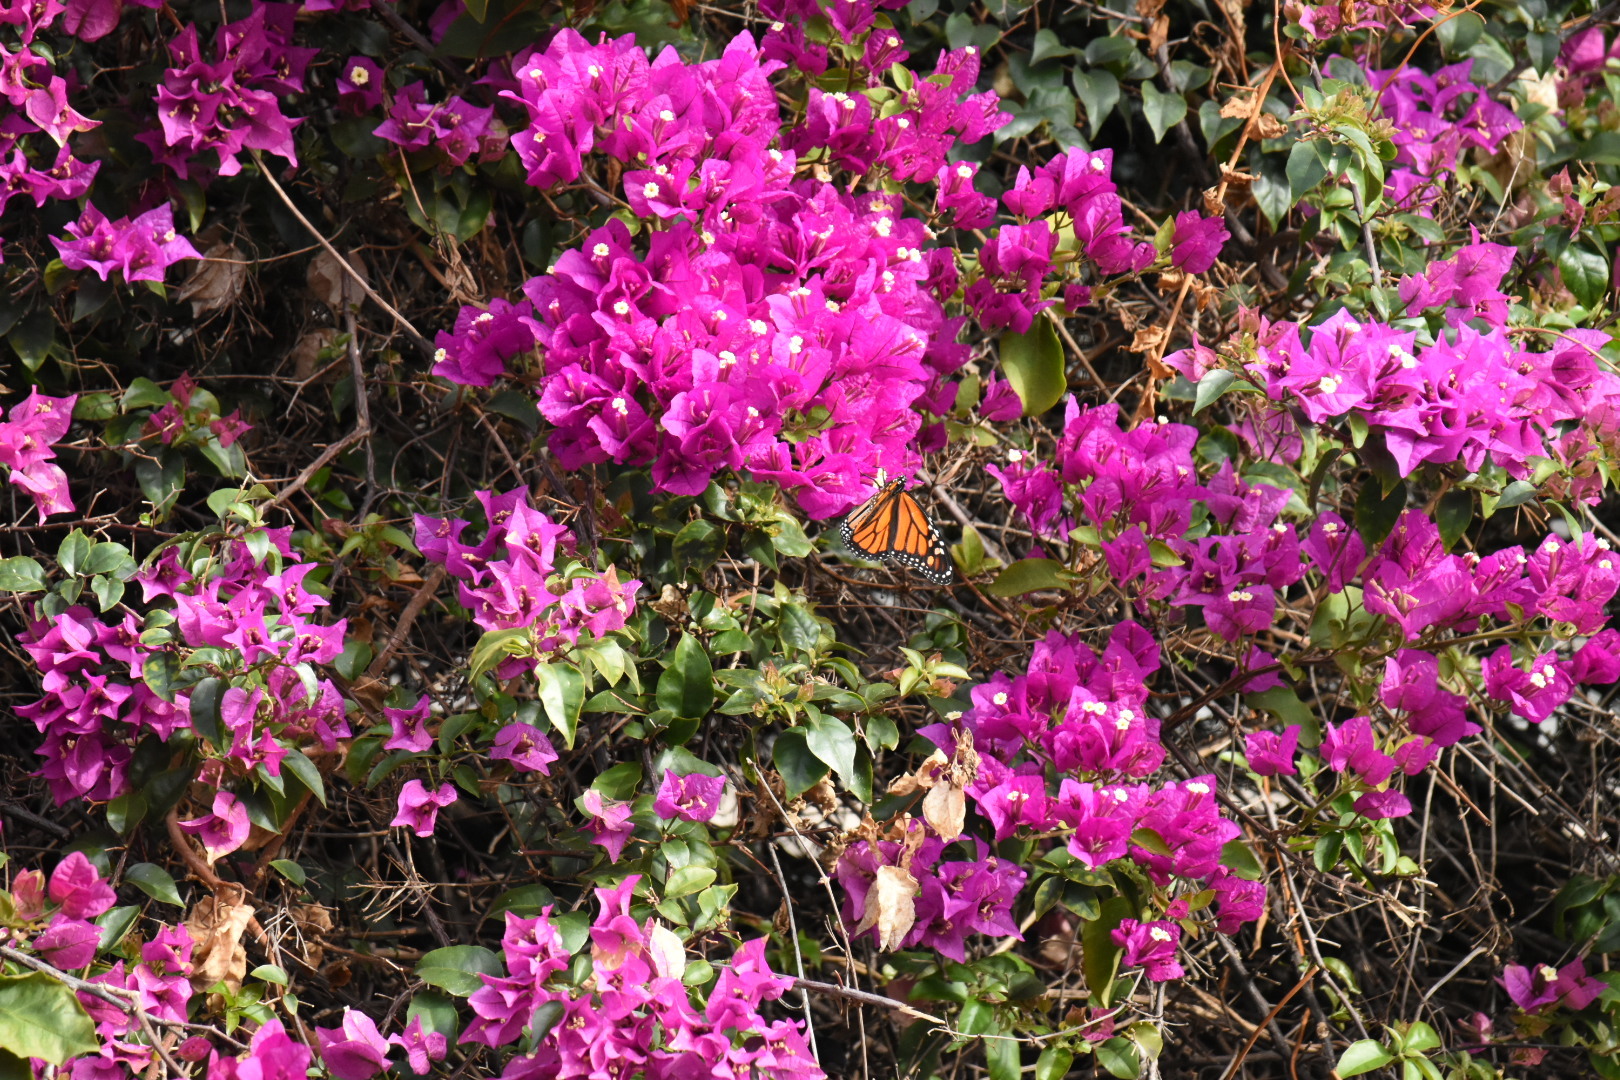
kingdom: Animalia
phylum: Arthropoda
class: Insecta
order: Lepidoptera
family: Nymphalidae
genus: Danaus
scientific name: Danaus plexippus
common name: Monarch
